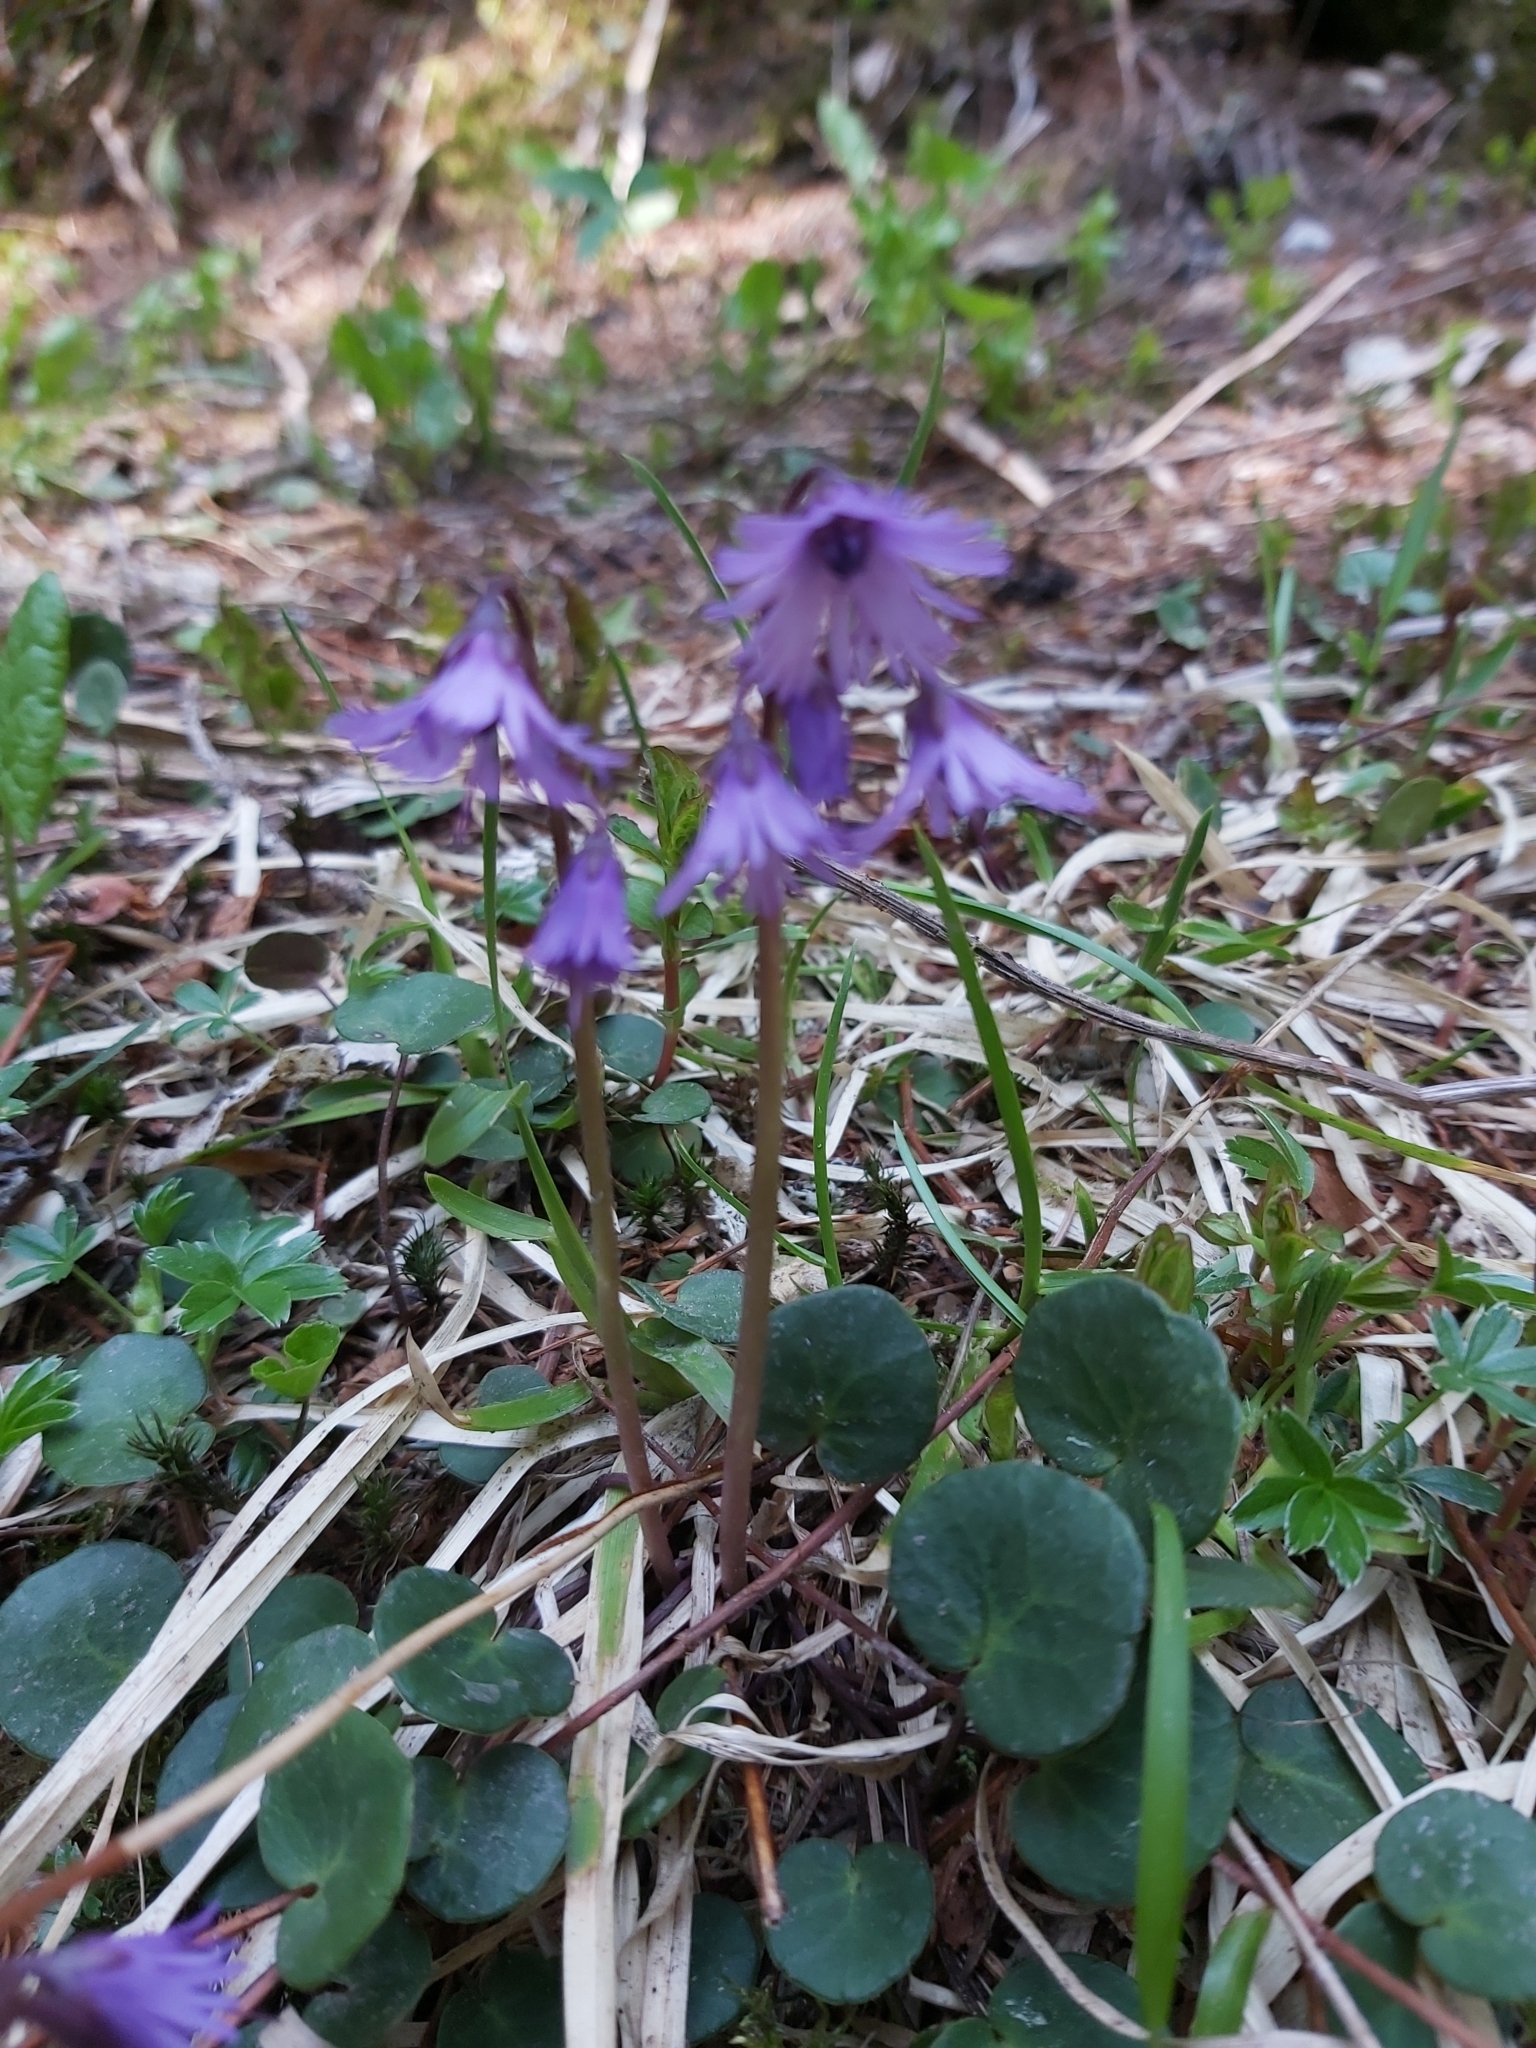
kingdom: Plantae
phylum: Tracheophyta
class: Magnoliopsida
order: Ericales
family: Primulaceae
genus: Soldanella
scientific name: Soldanella carpatica
